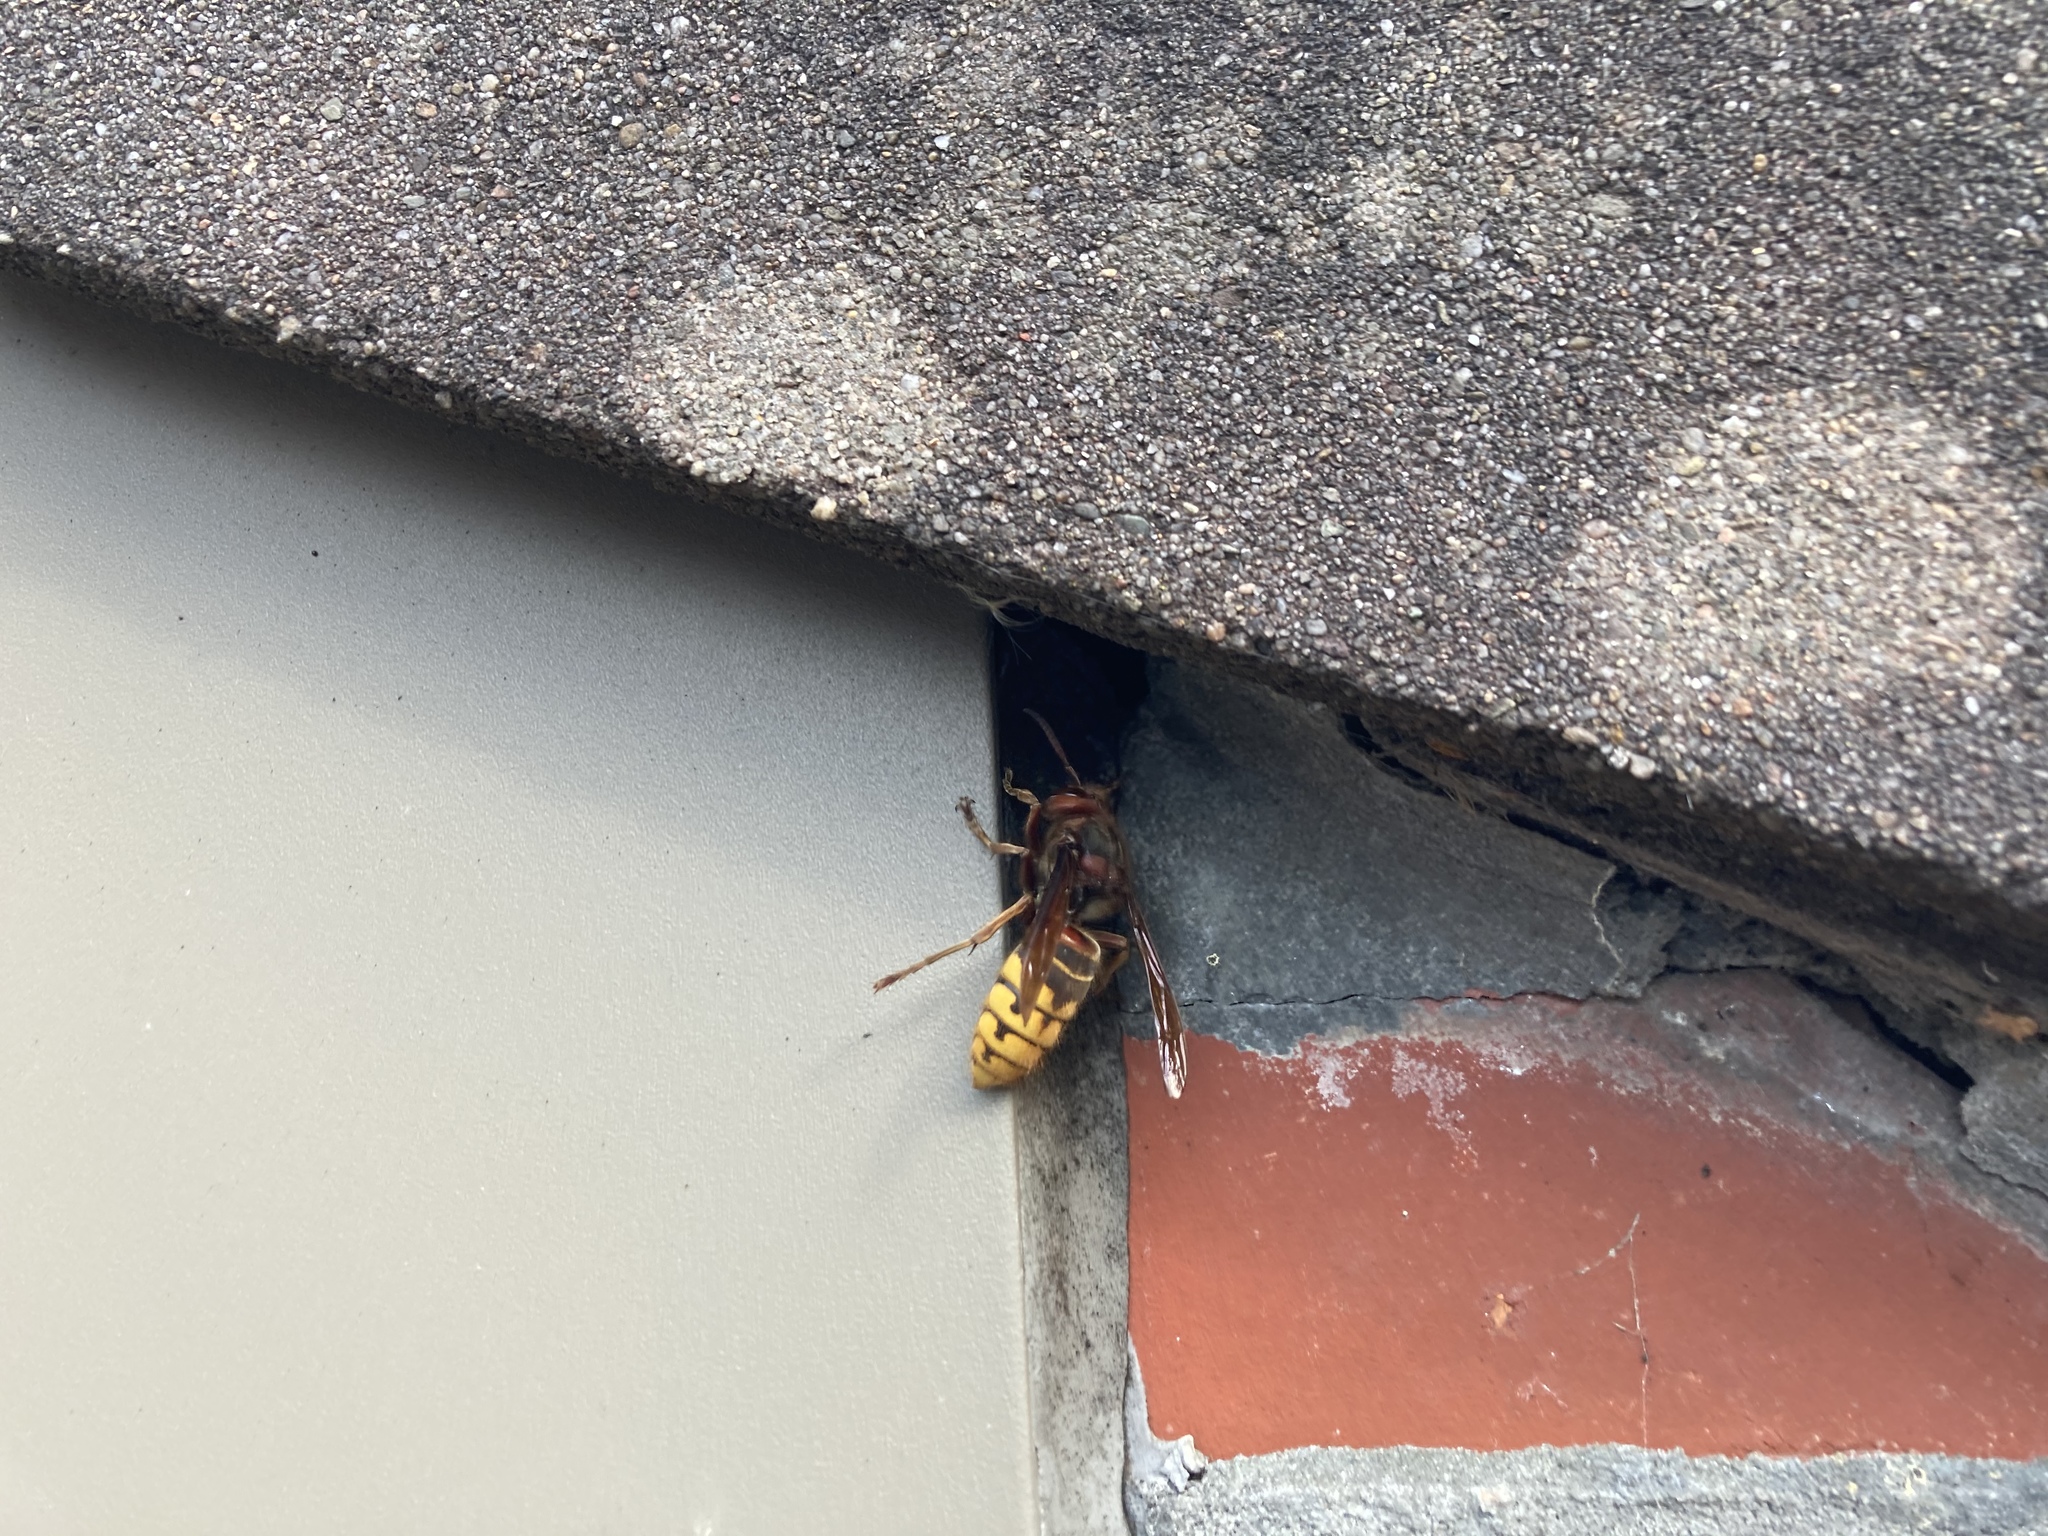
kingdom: Animalia
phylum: Arthropoda
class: Insecta
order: Hymenoptera
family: Vespidae
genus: Vespa
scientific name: Vespa crabro
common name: Hornet
